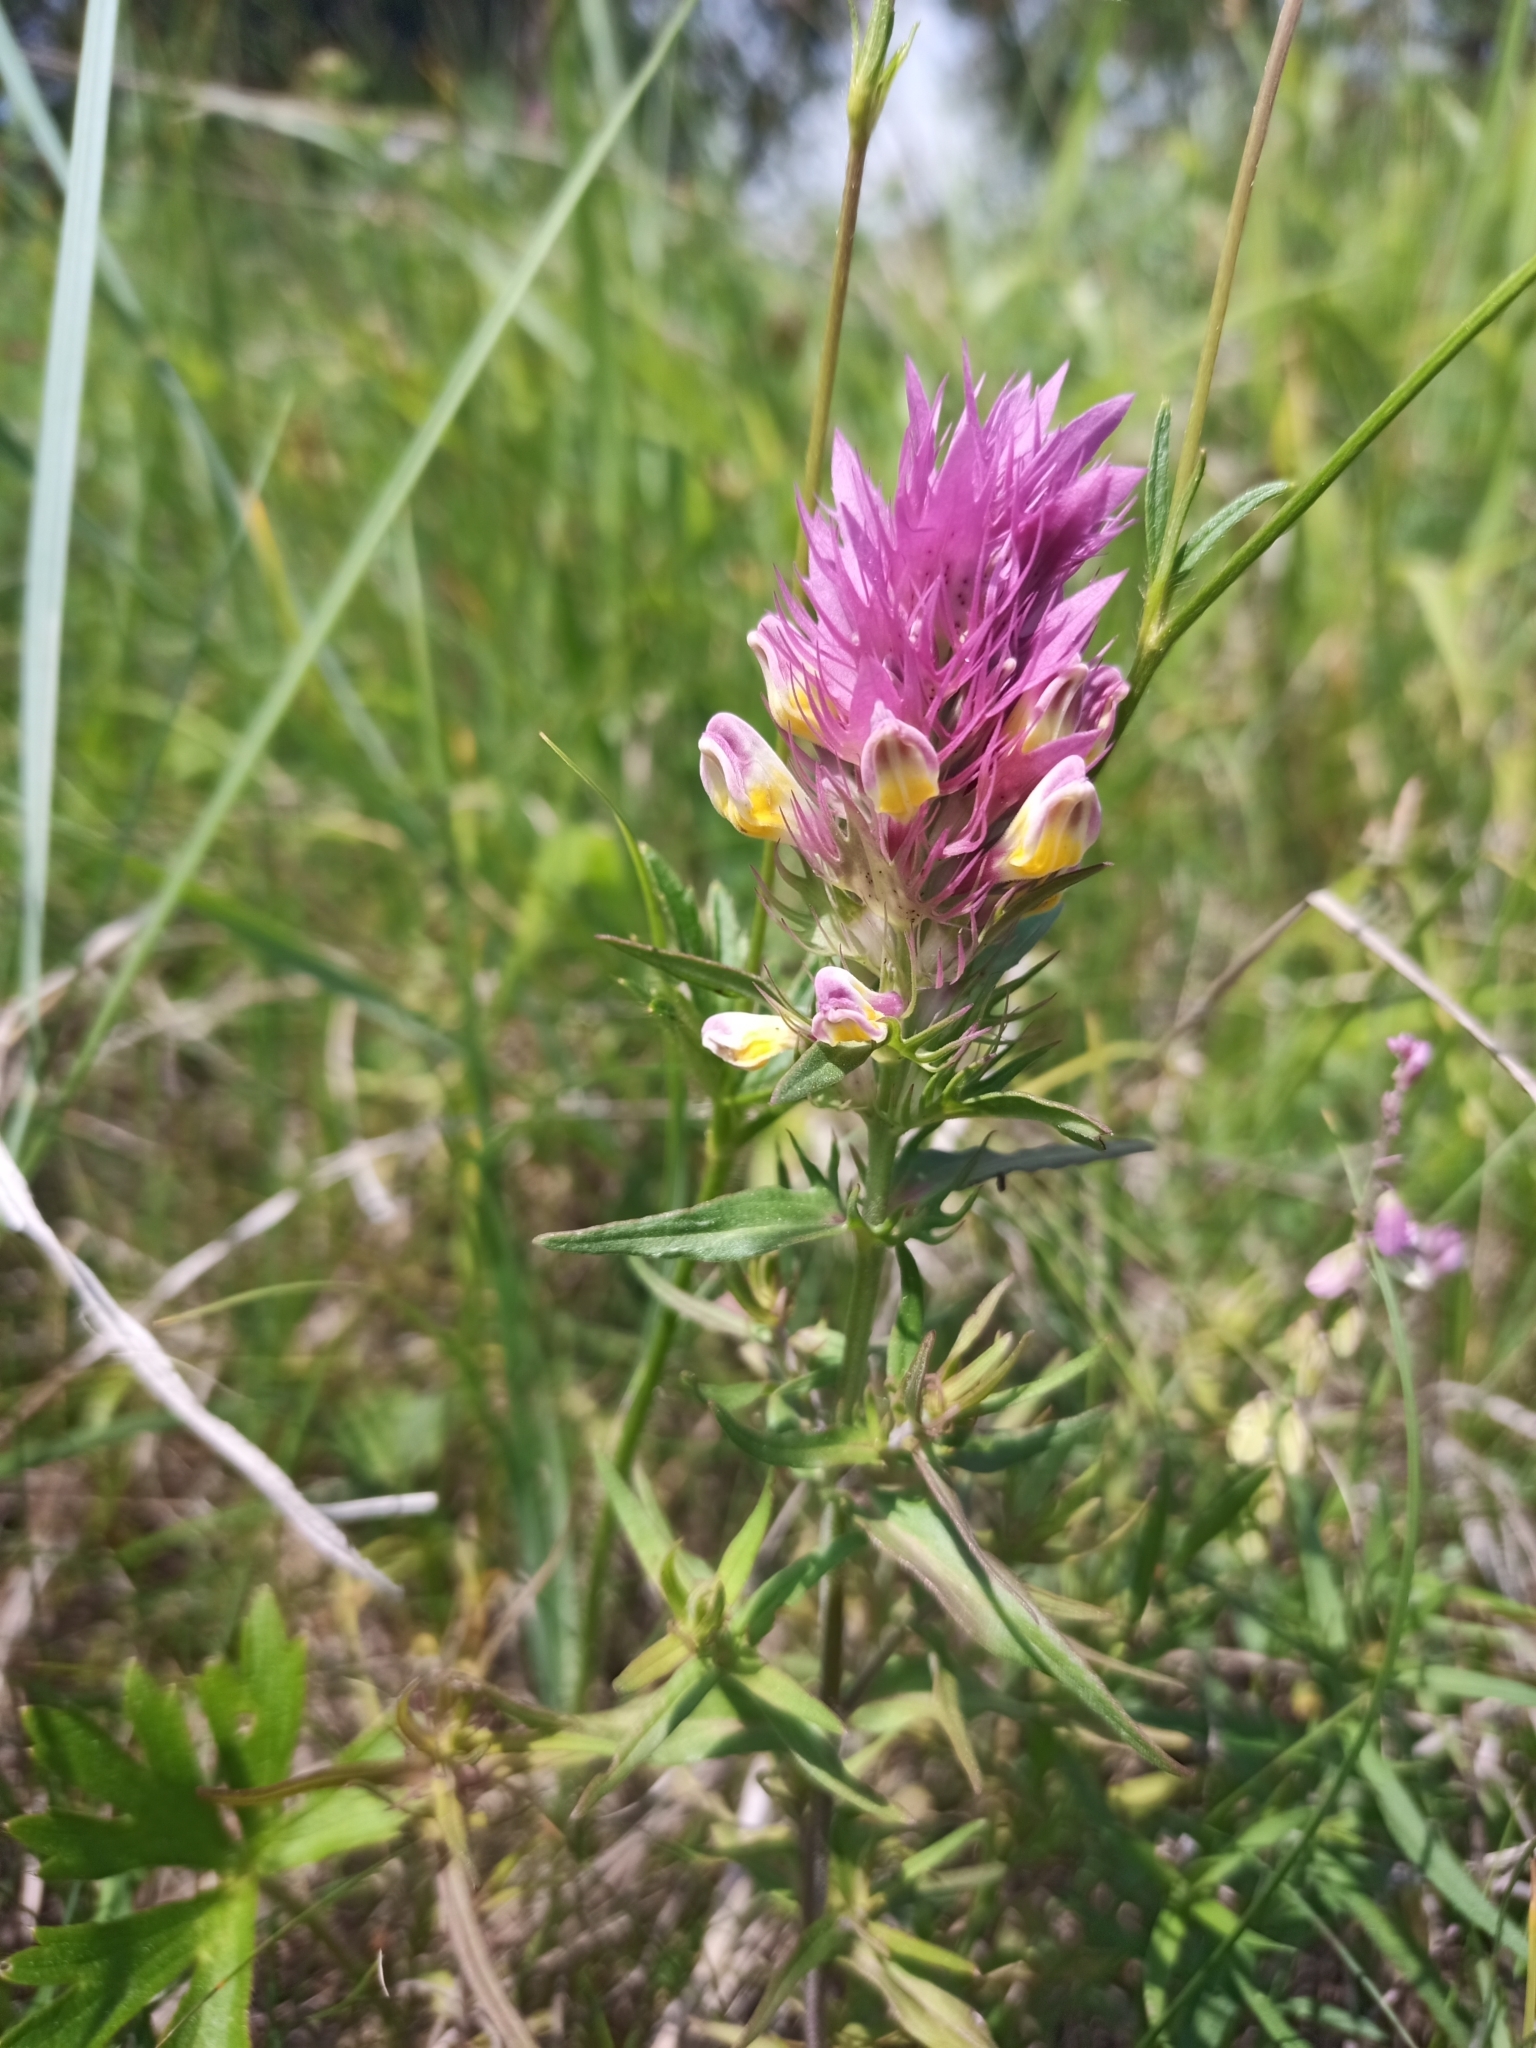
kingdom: Plantae
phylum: Tracheophyta
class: Magnoliopsida
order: Lamiales
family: Orobanchaceae
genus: Melampyrum
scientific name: Melampyrum arvense
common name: Field cow-wheat
